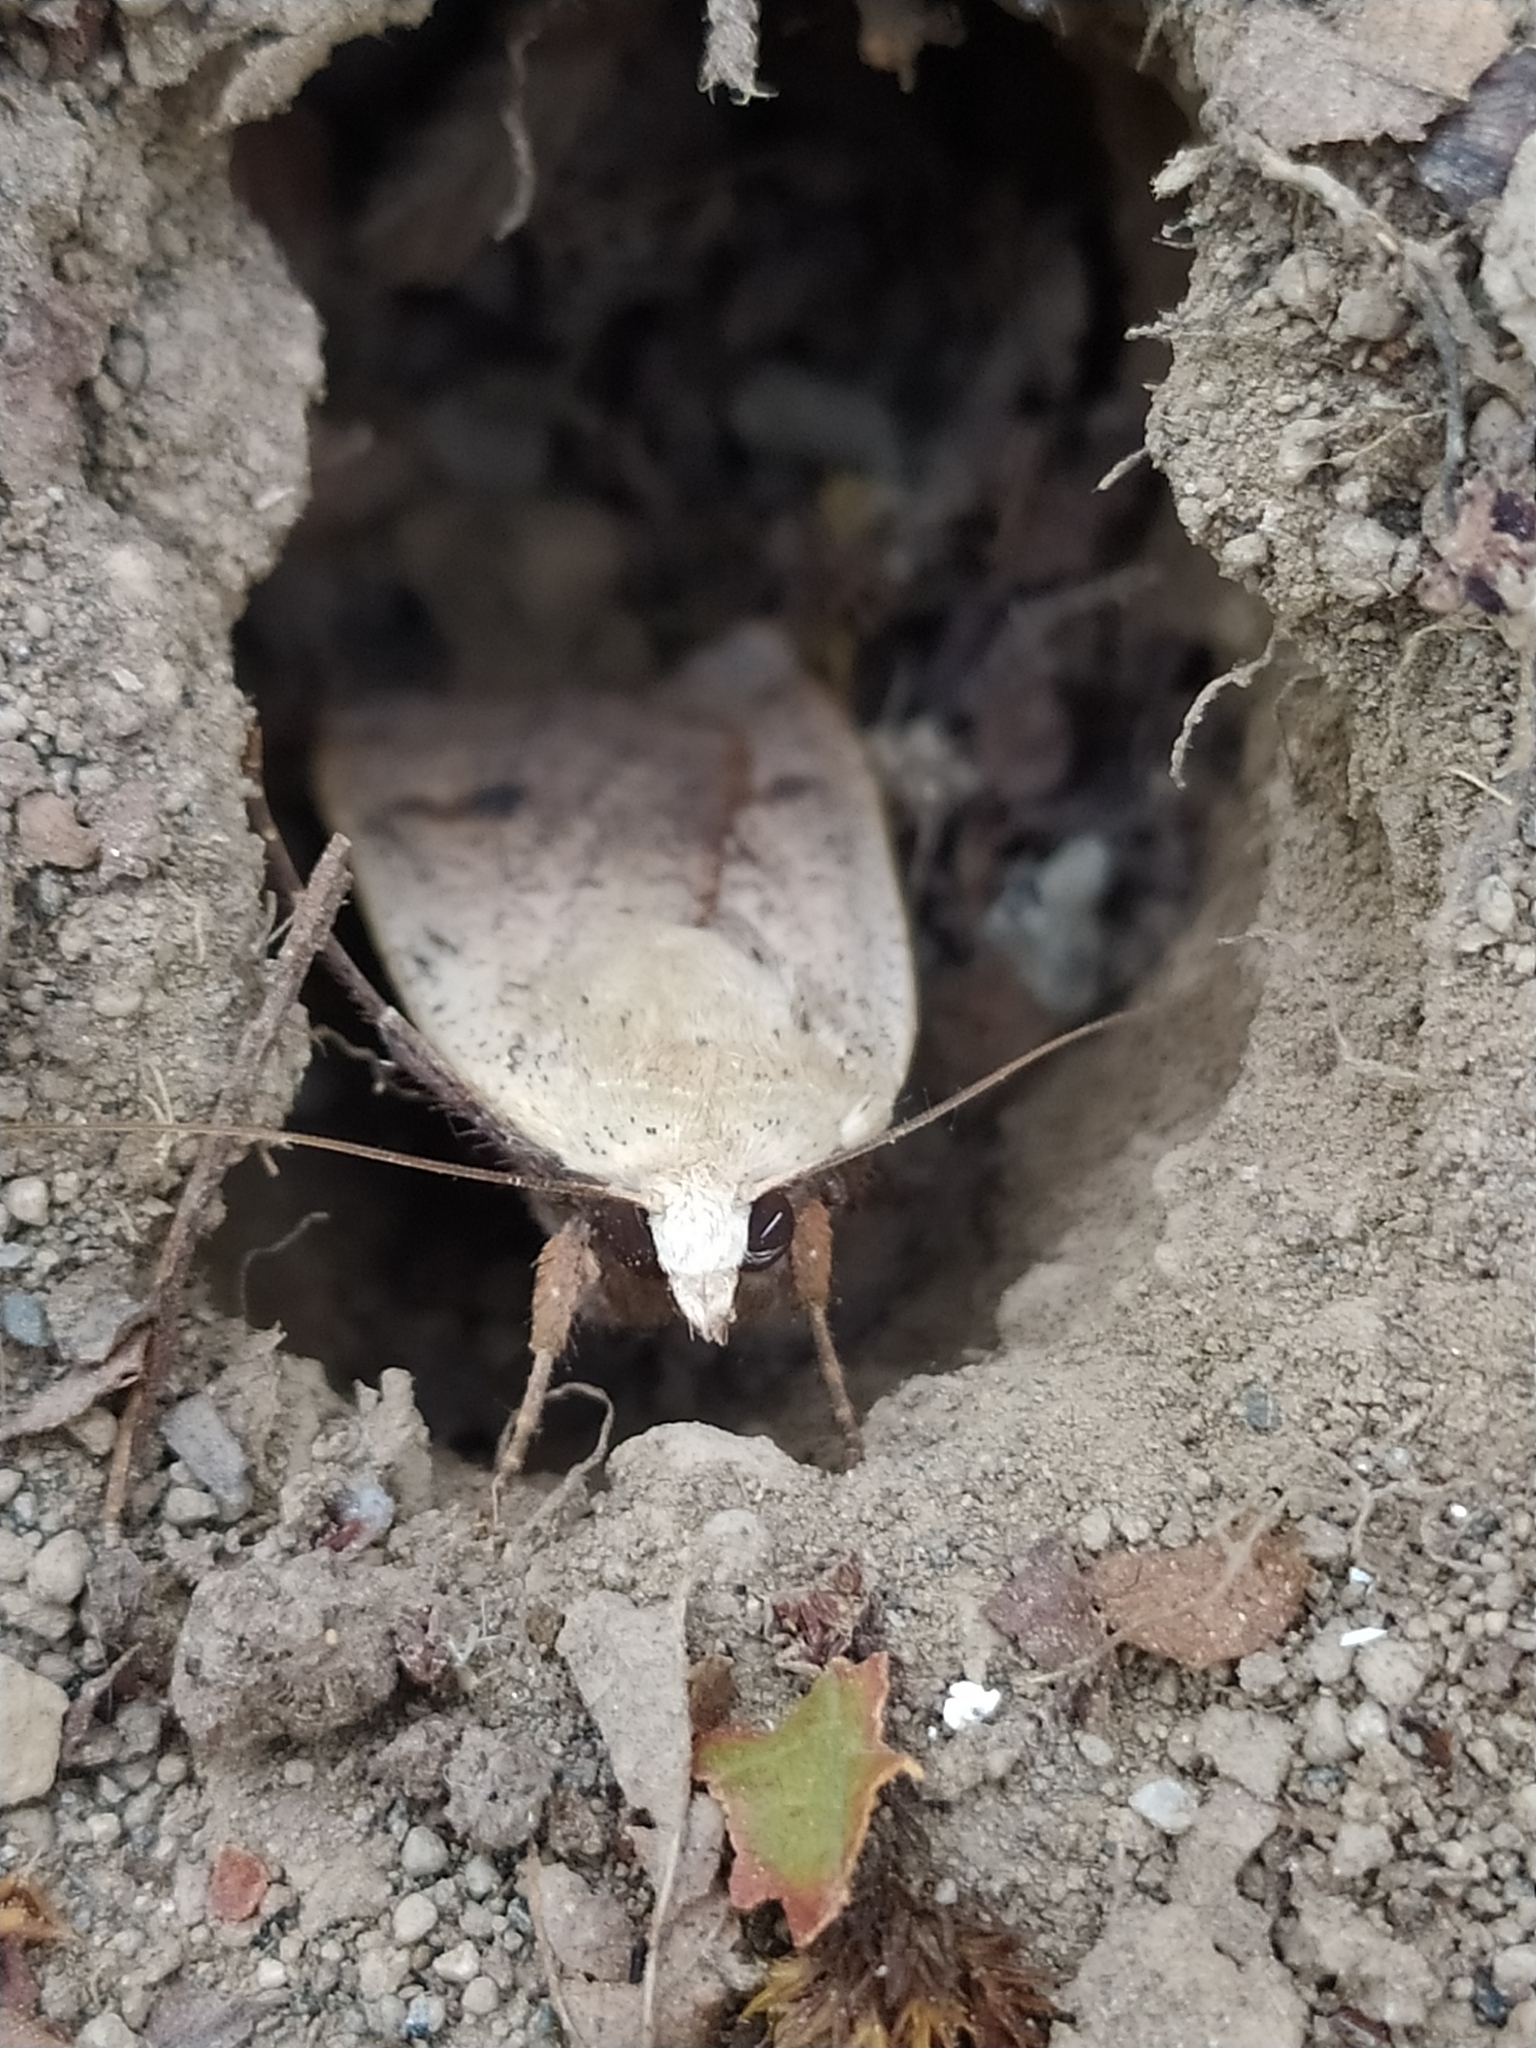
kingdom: Animalia
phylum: Arthropoda
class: Insecta
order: Lepidoptera
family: Noctuidae
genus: Noctua
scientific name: Noctua pronuba
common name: Large yellow underwing
